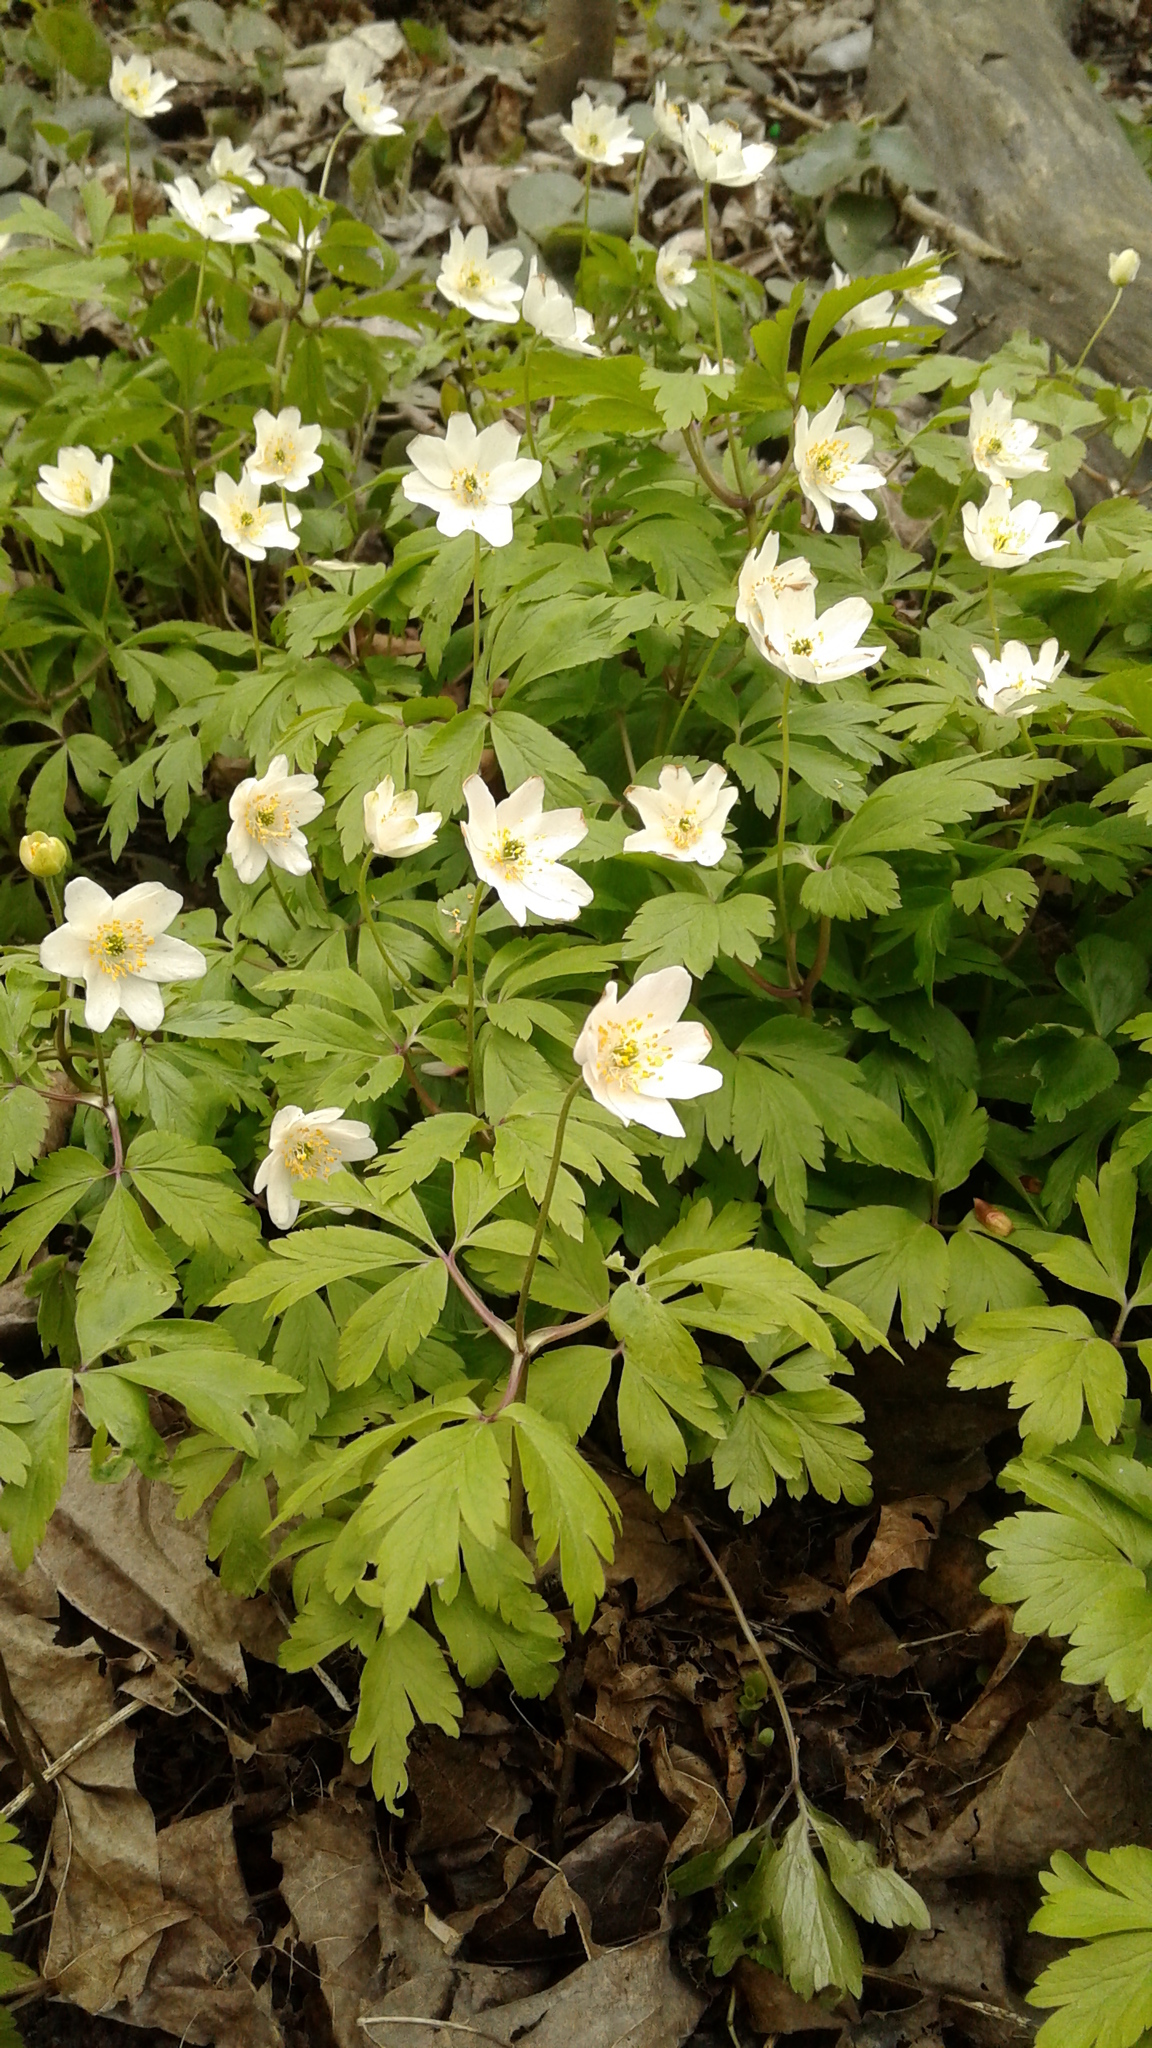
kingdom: Plantae
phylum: Tracheophyta
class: Magnoliopsida
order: Ranunculales
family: Ranunculaceae
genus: Anemone
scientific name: Anemone nemorosa
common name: Wood anemone
